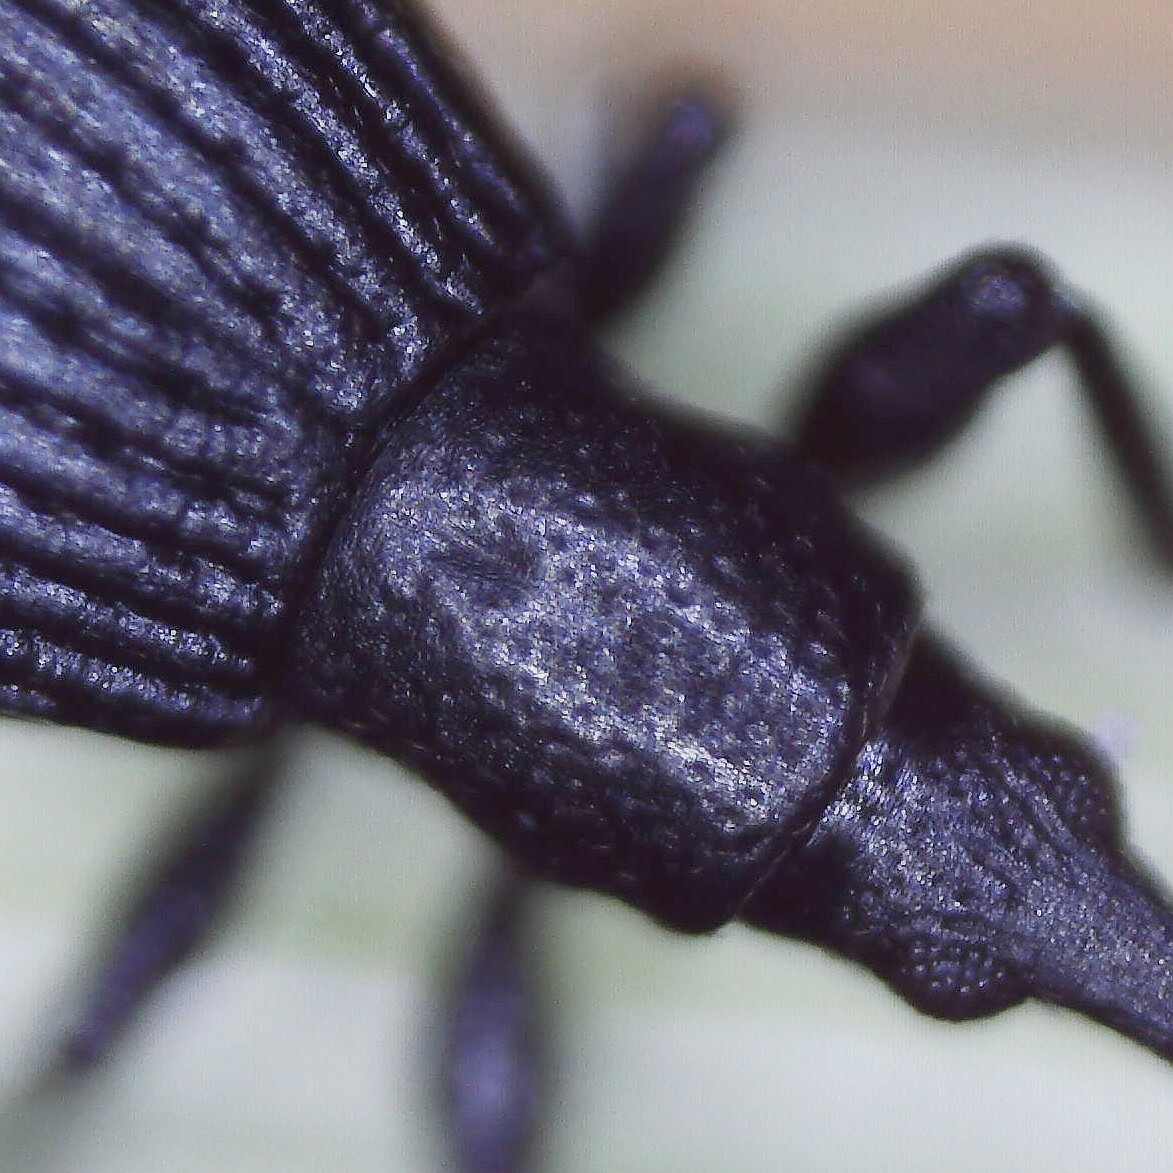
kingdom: Animalia
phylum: Arthropoda
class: Insecta
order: Coleoptera
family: Apionidae
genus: Synapion
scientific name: Synapion ebeninum
